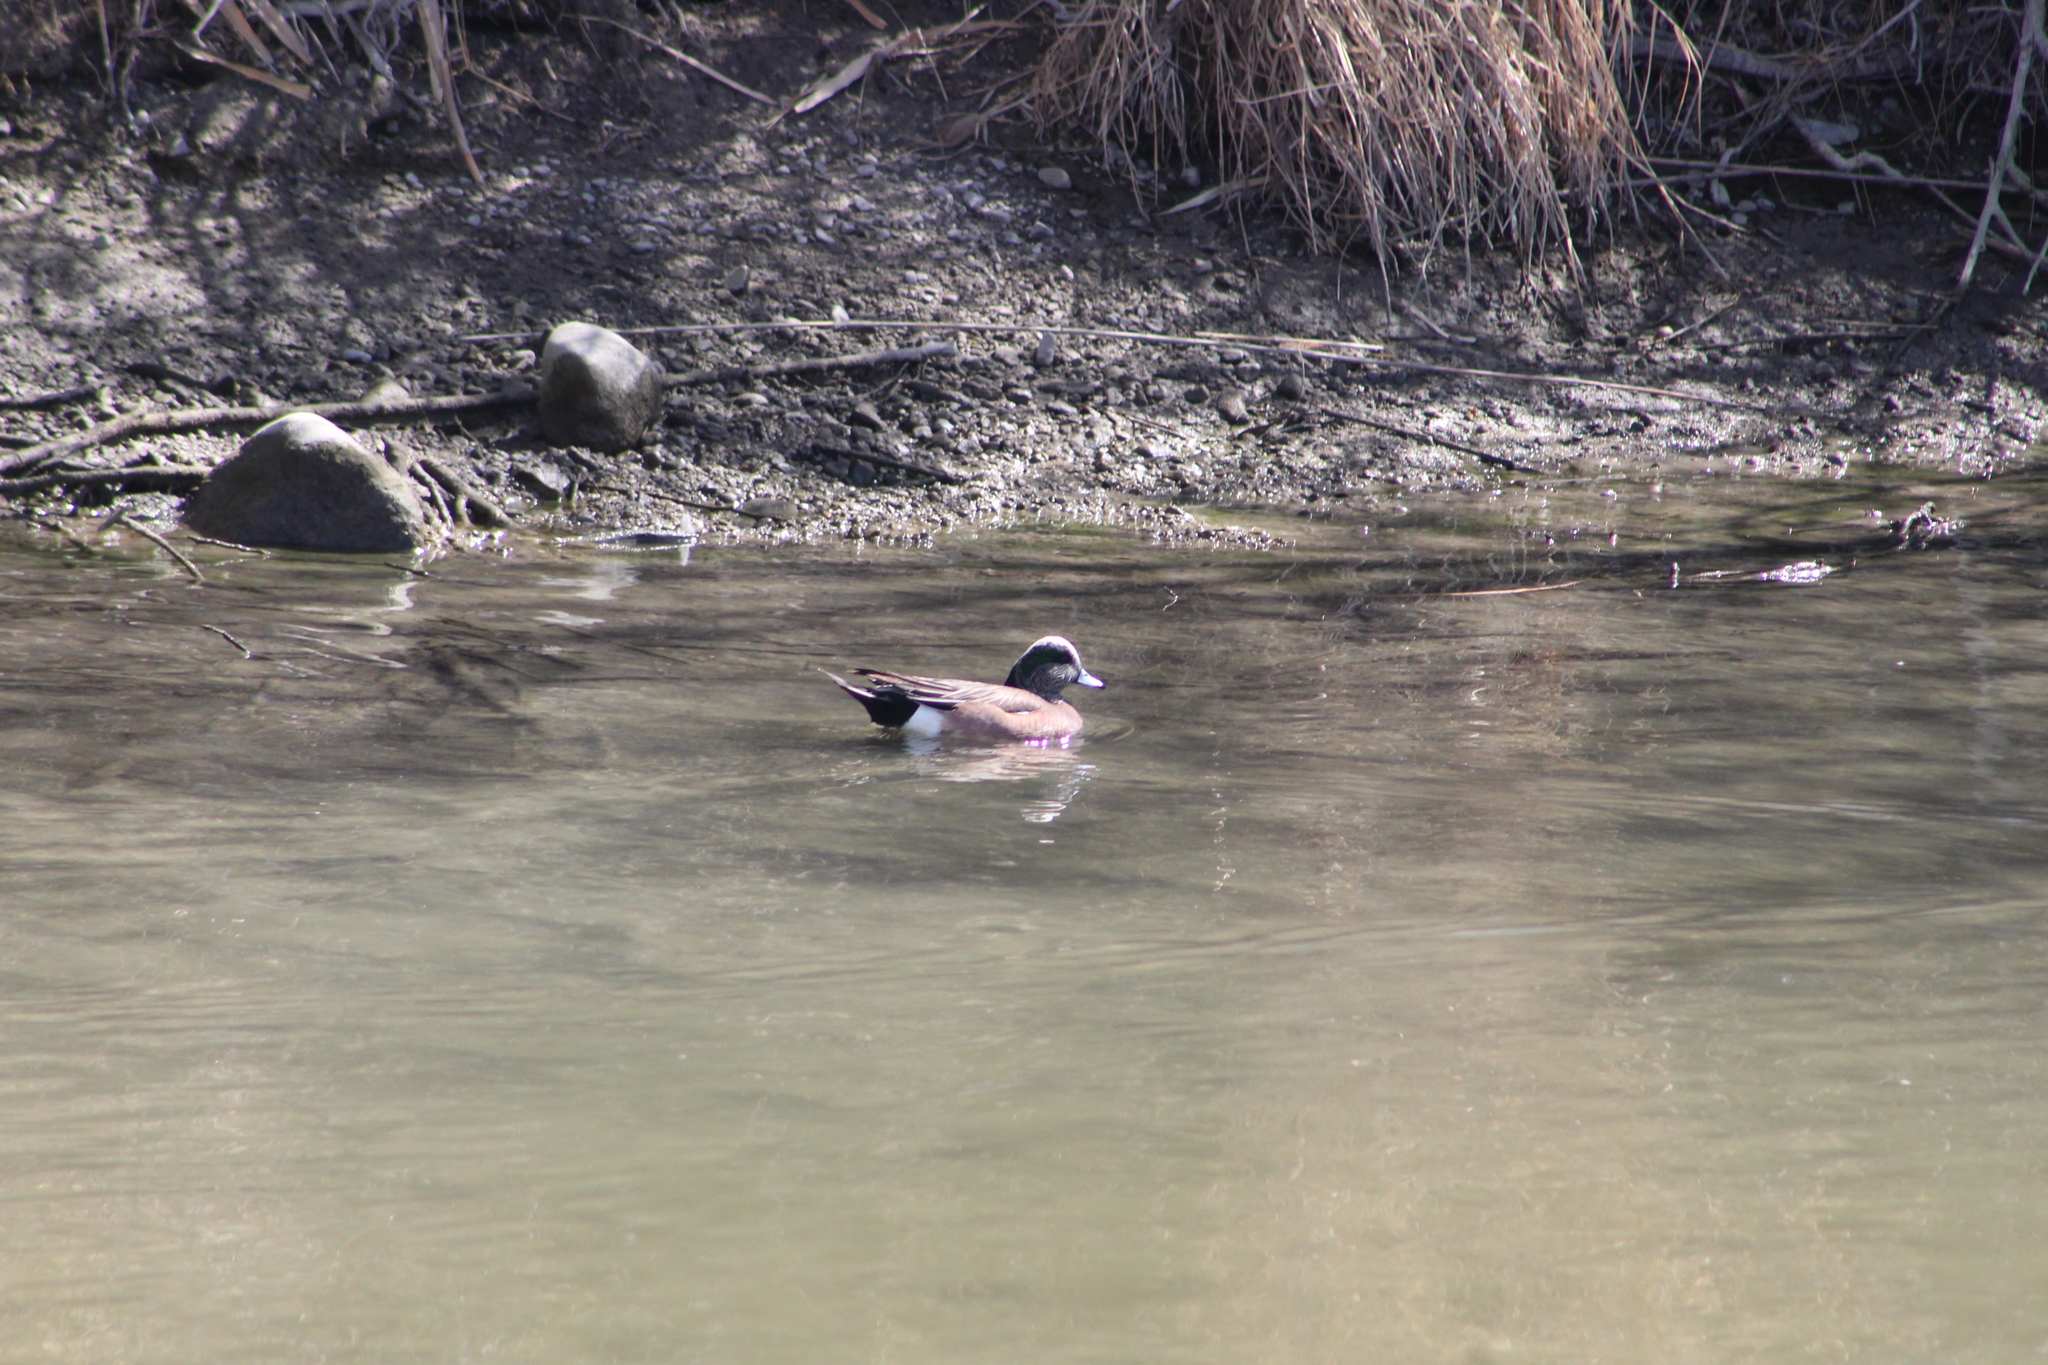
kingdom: Animalia
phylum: Chordata
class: Aves
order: Anseriformes
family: Anatidae
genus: Mareca
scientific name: Mareca americana
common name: American wigeon
